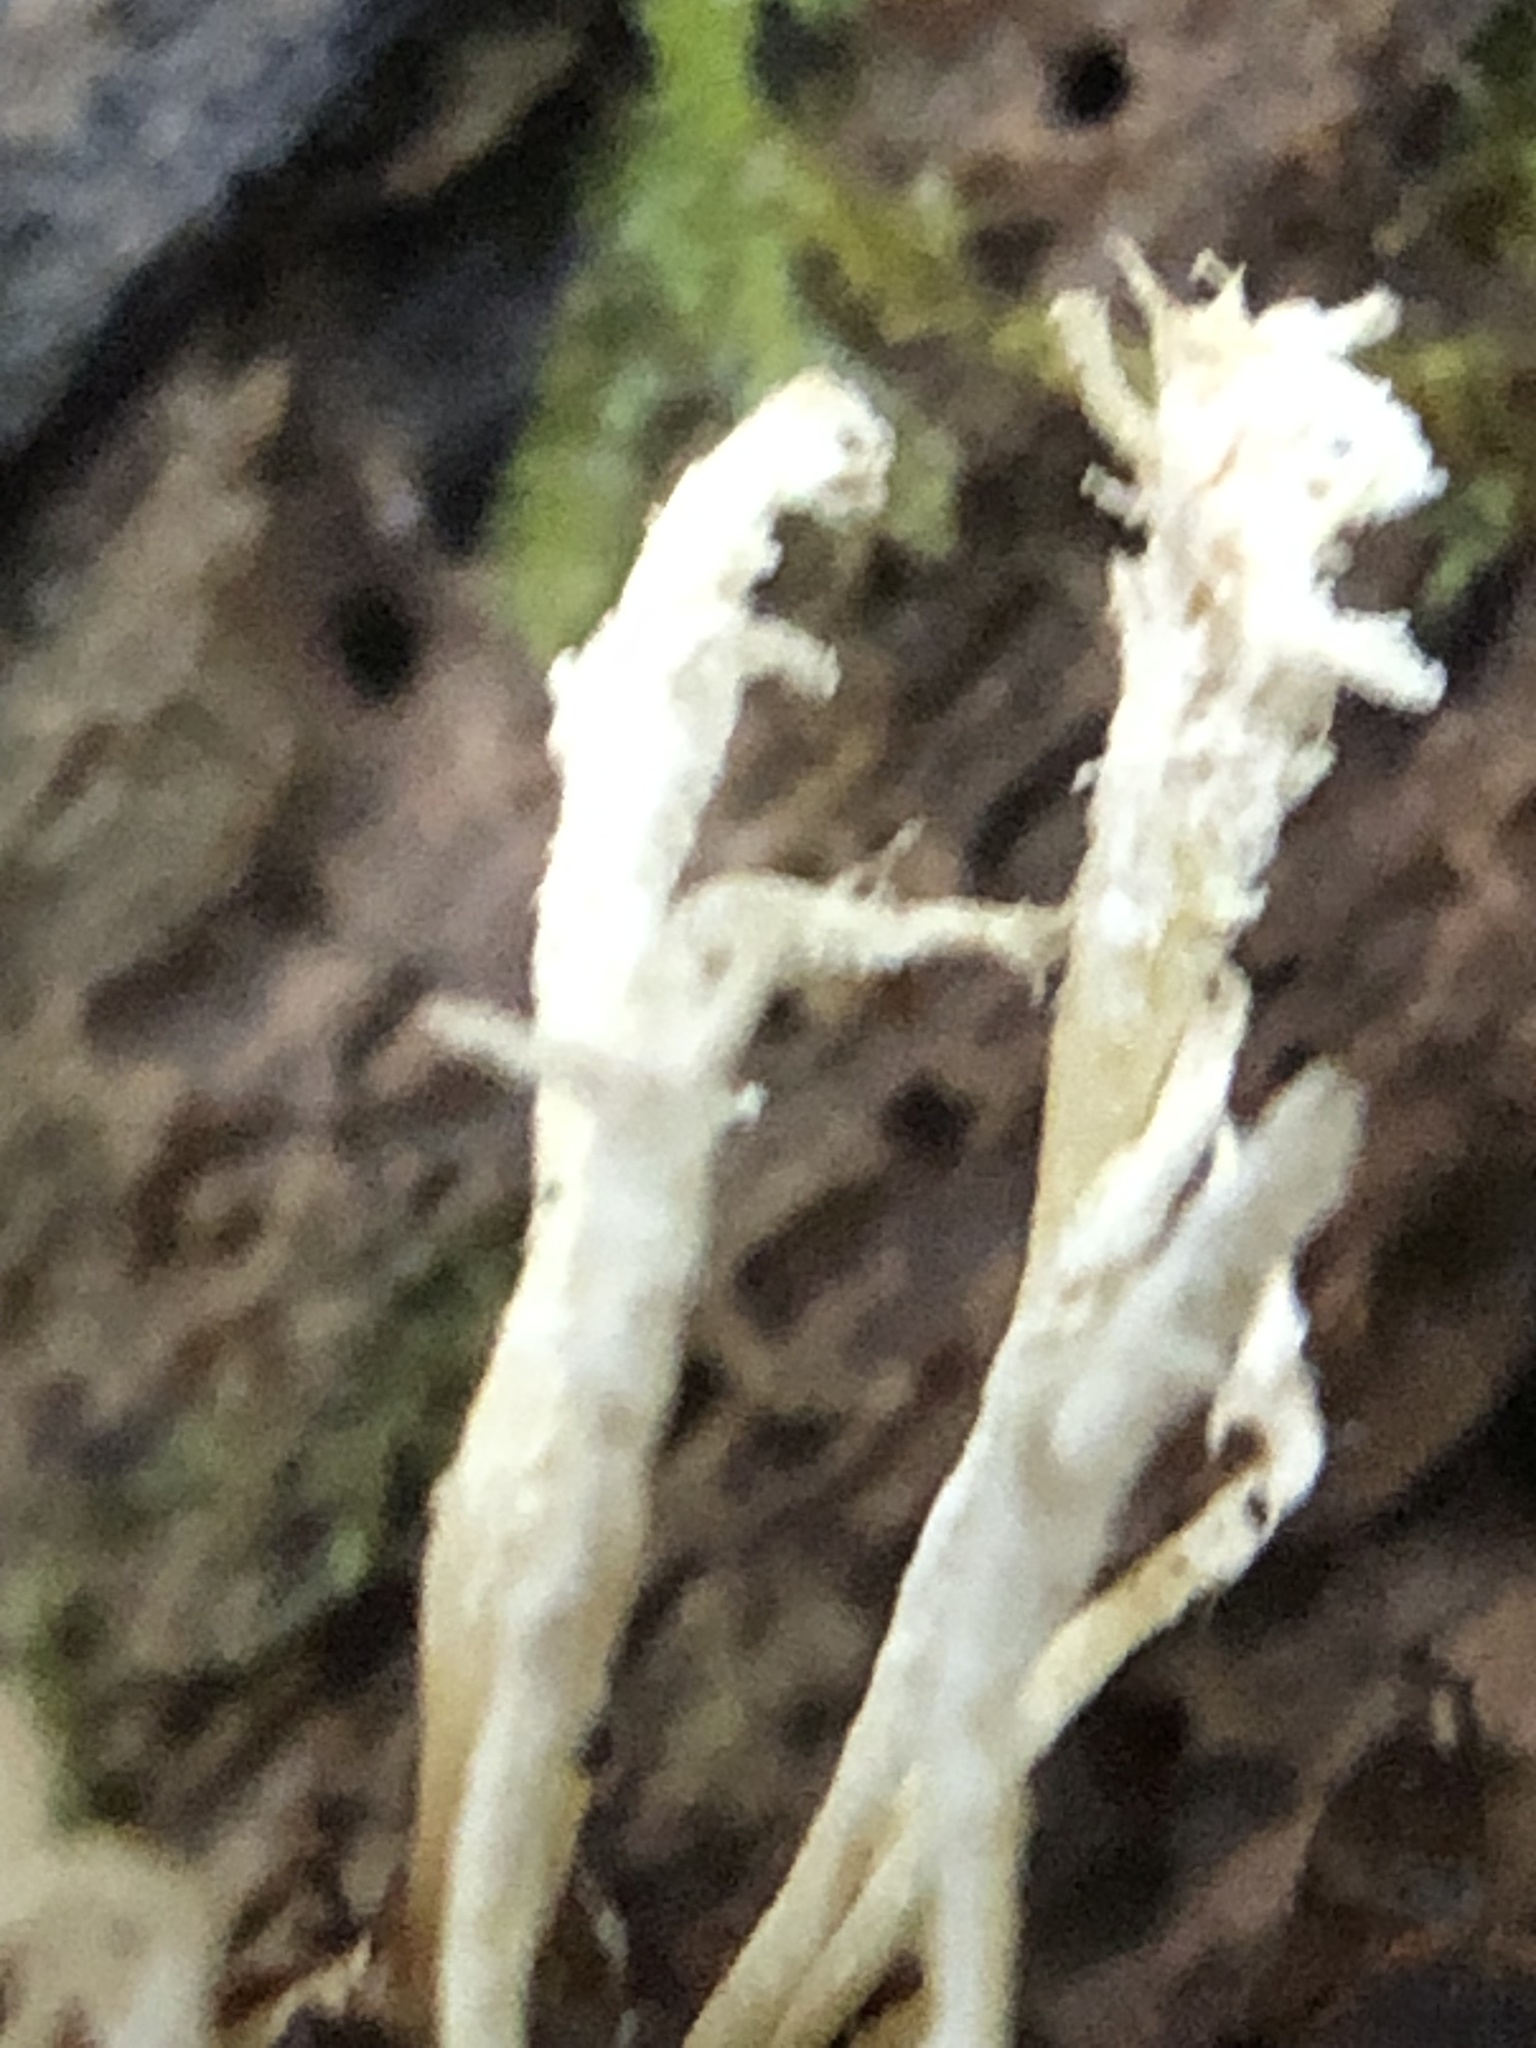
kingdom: Fungi
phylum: Ascomycota
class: Sordariomycetes
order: Hypocreales
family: Cordycipitaceae
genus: Cordyceps
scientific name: Cordyceps tenuipes
